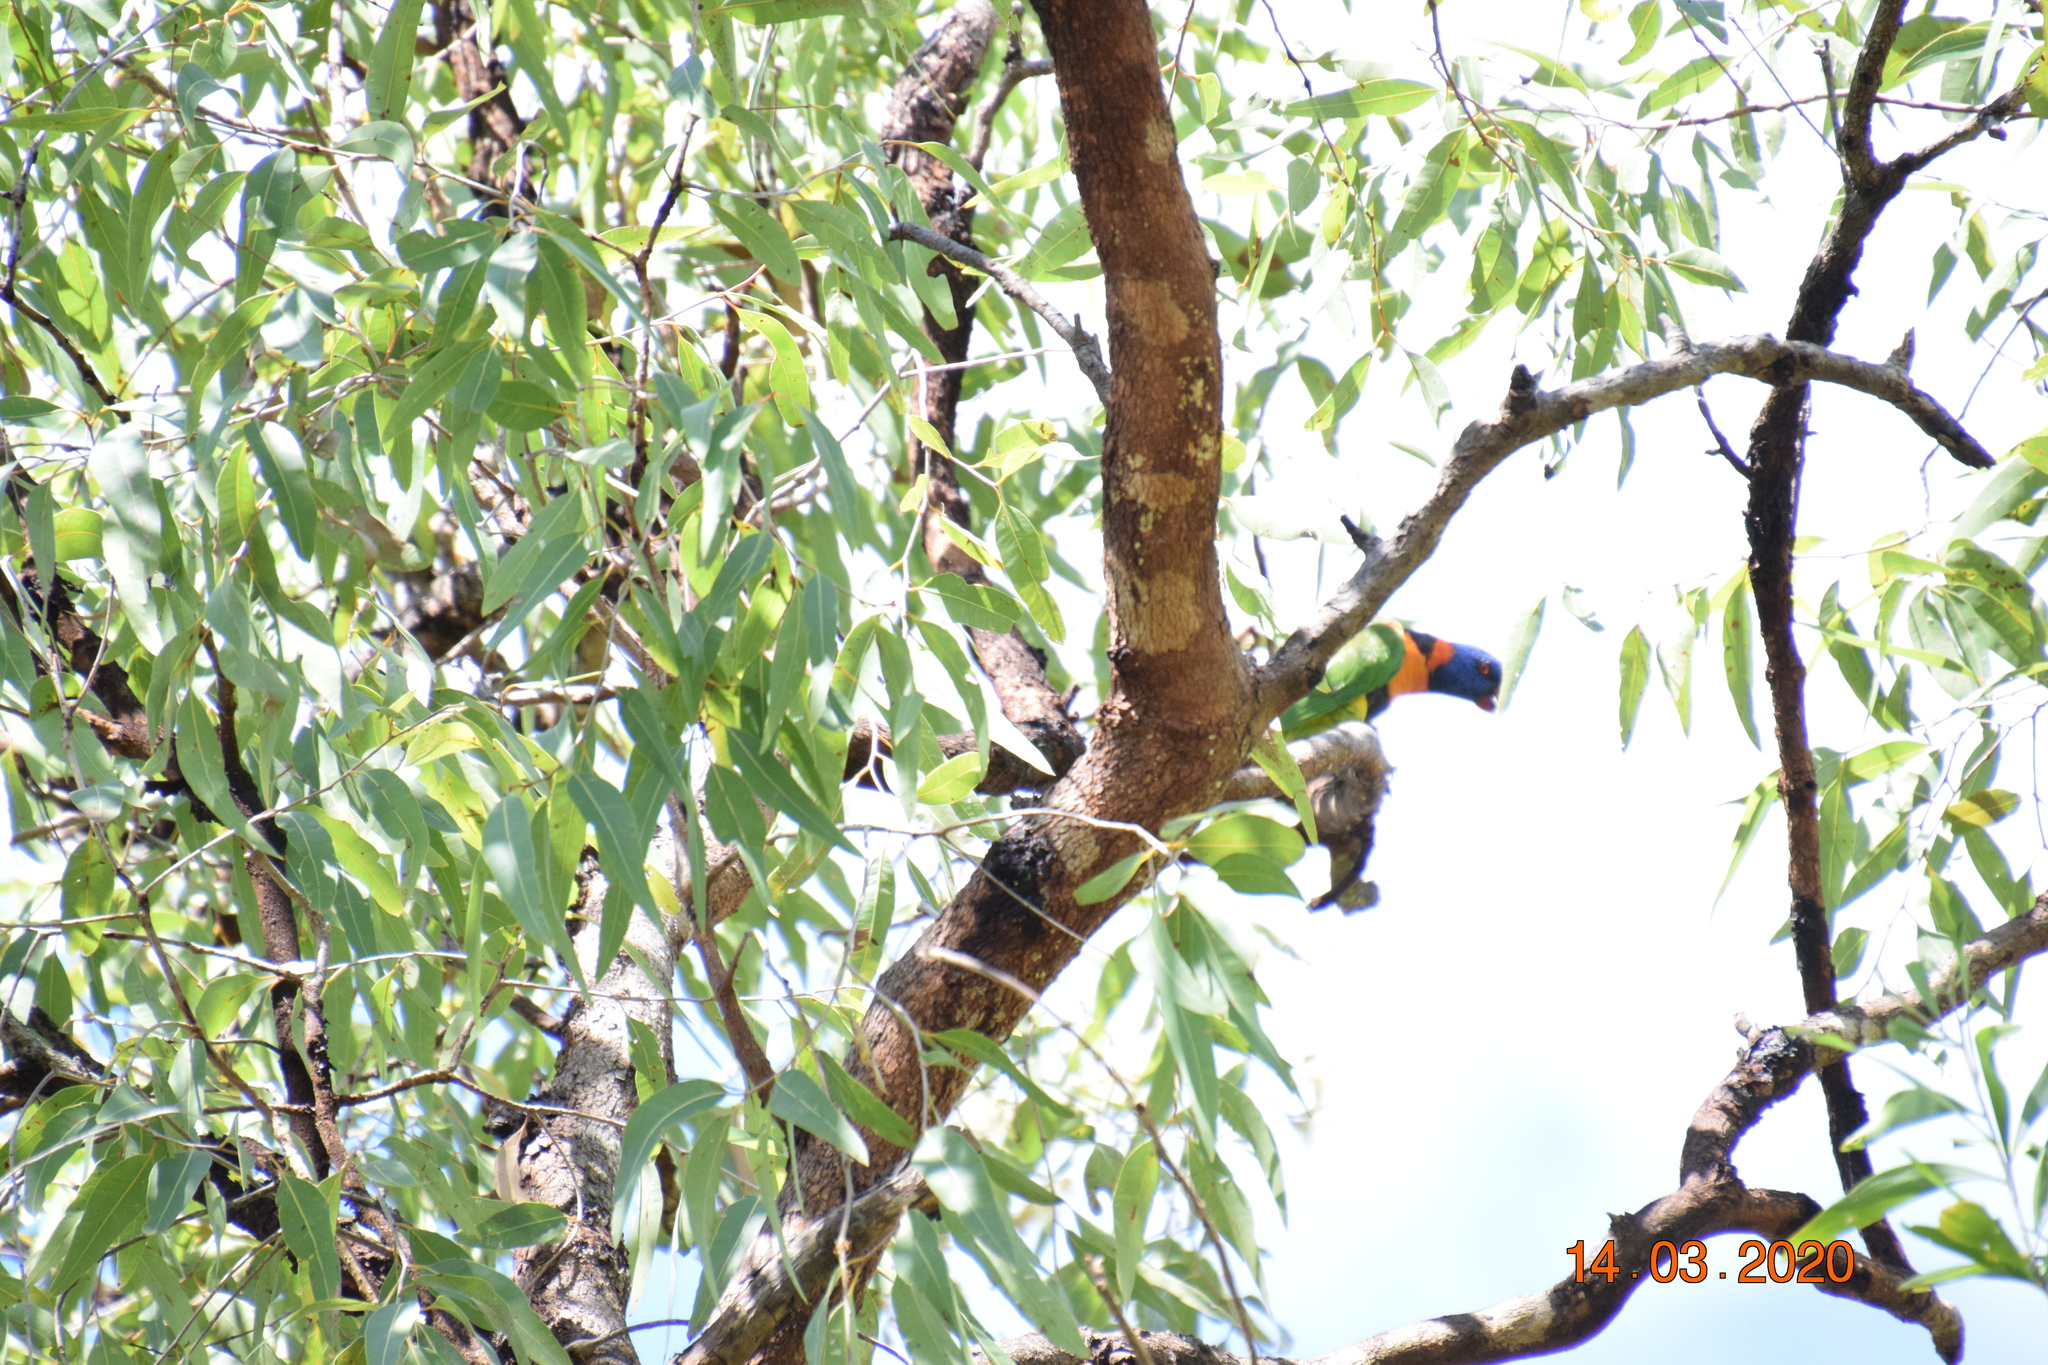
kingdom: Animalia
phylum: Chordata
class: Aves
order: Psittaciformes
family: Psittacidae
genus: Trichoglossus
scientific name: Trichoglossus rubritorquis
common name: Red-collared lorikeet
